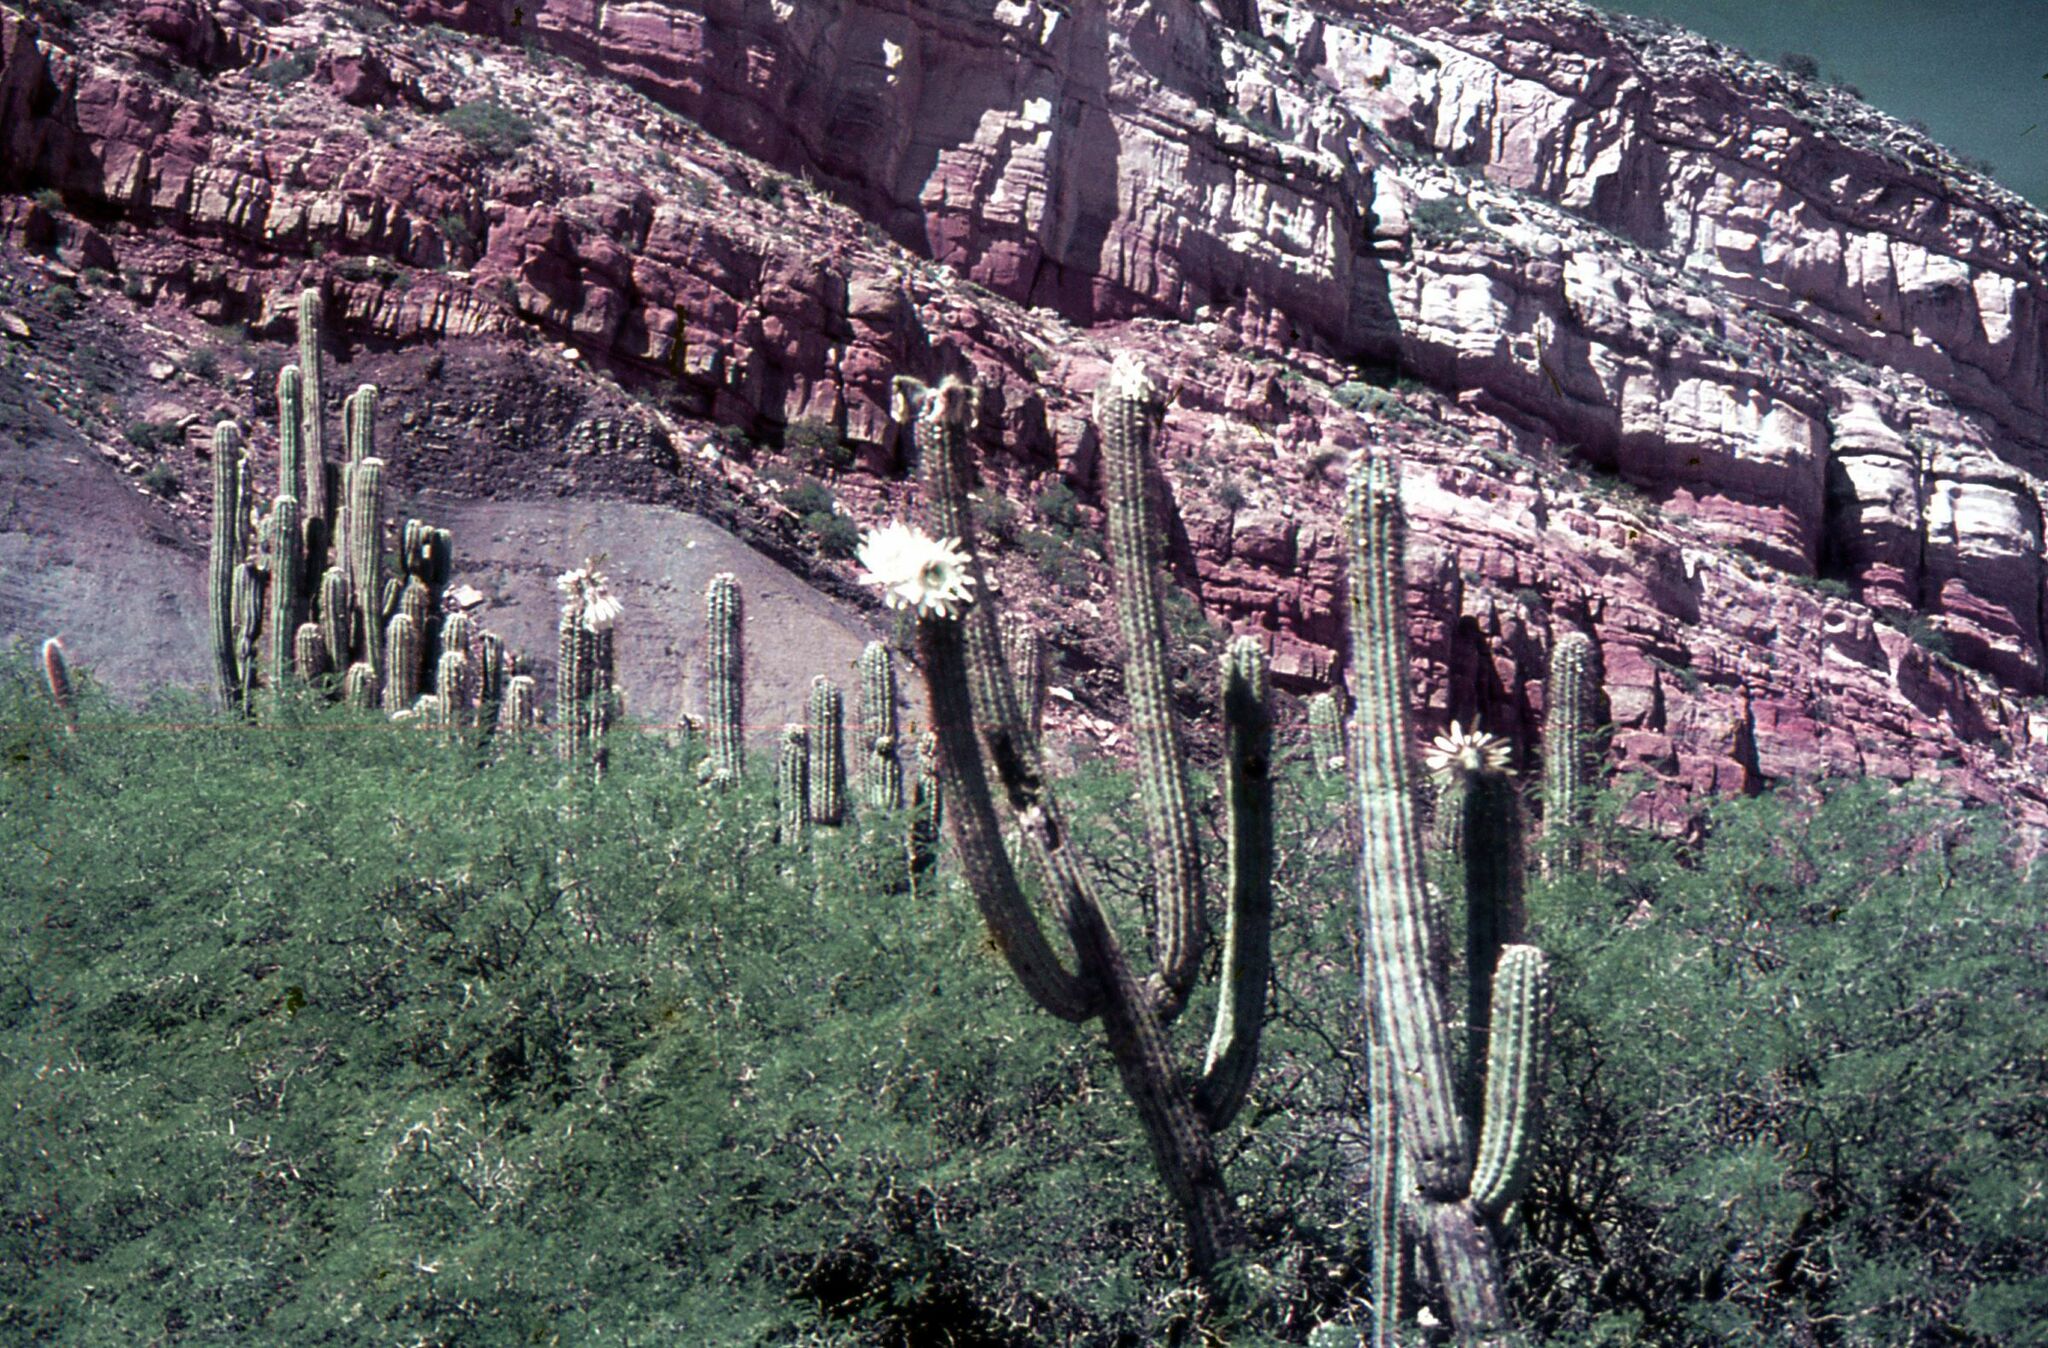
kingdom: Plantae
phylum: Tracheophyta
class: Magnoliopsida
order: Caryophyllales
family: Cactaceae
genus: Leucostele
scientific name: Leucostele terscheckii
